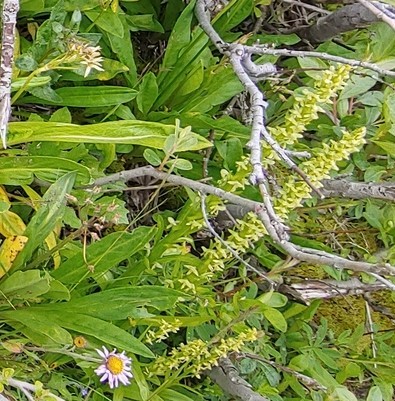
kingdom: Plantae
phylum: Tracheophyta
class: Liliopsida
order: Asparagales
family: Orchidaceae
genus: Platanthera
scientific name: Platanthera stricta
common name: Slender bog orchid
